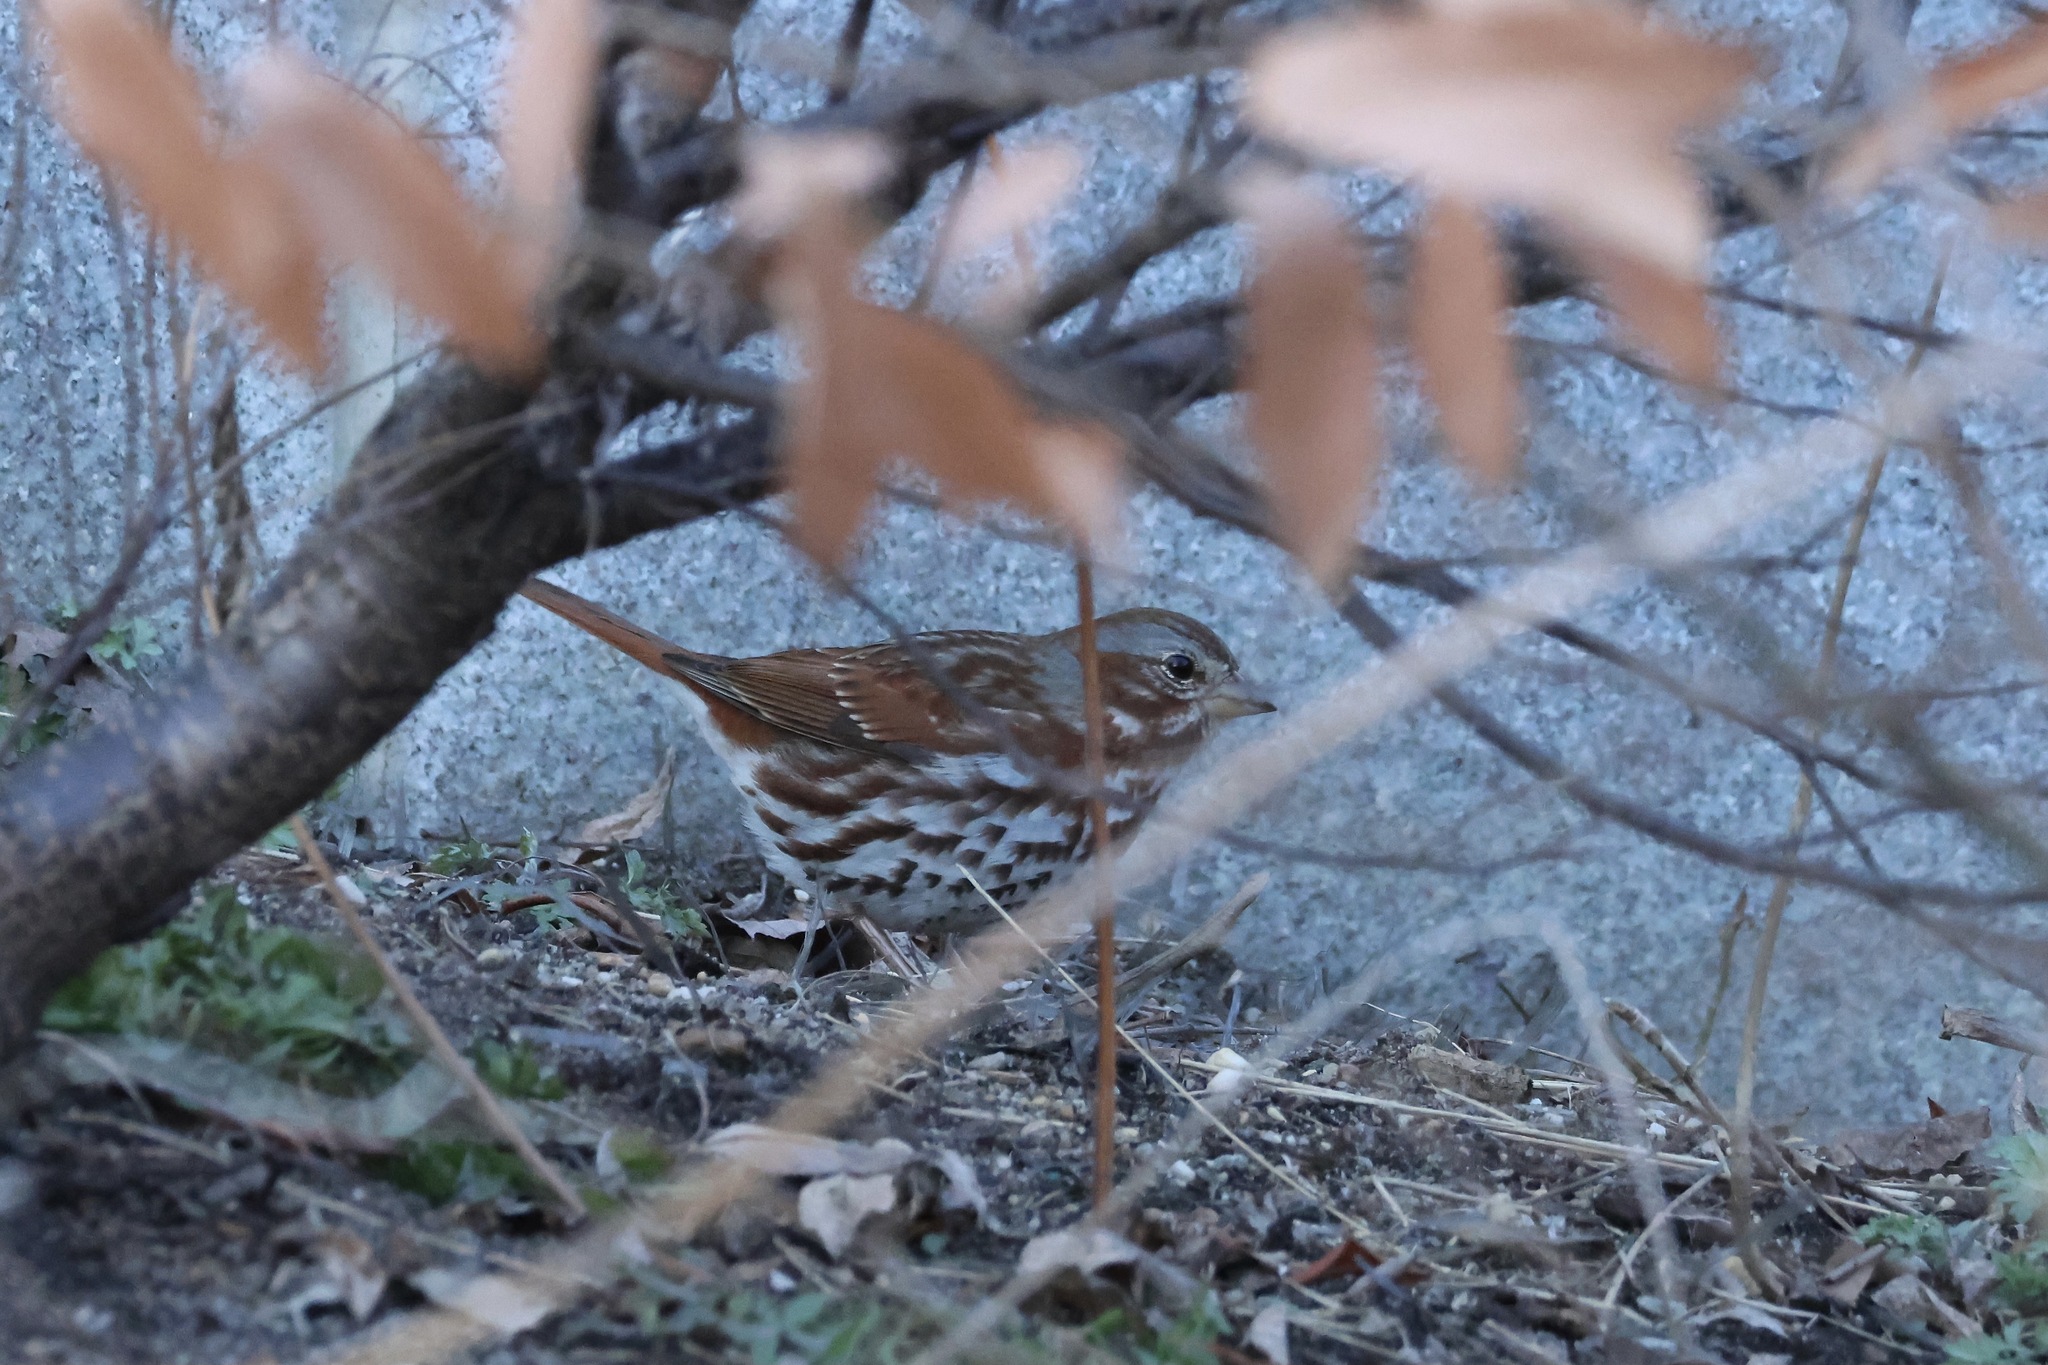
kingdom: Animalia
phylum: Chordata
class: Aves
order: Passeriformes
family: Passerellidae
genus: Passerella
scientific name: Passerella iliaca
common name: Fox sparrow
